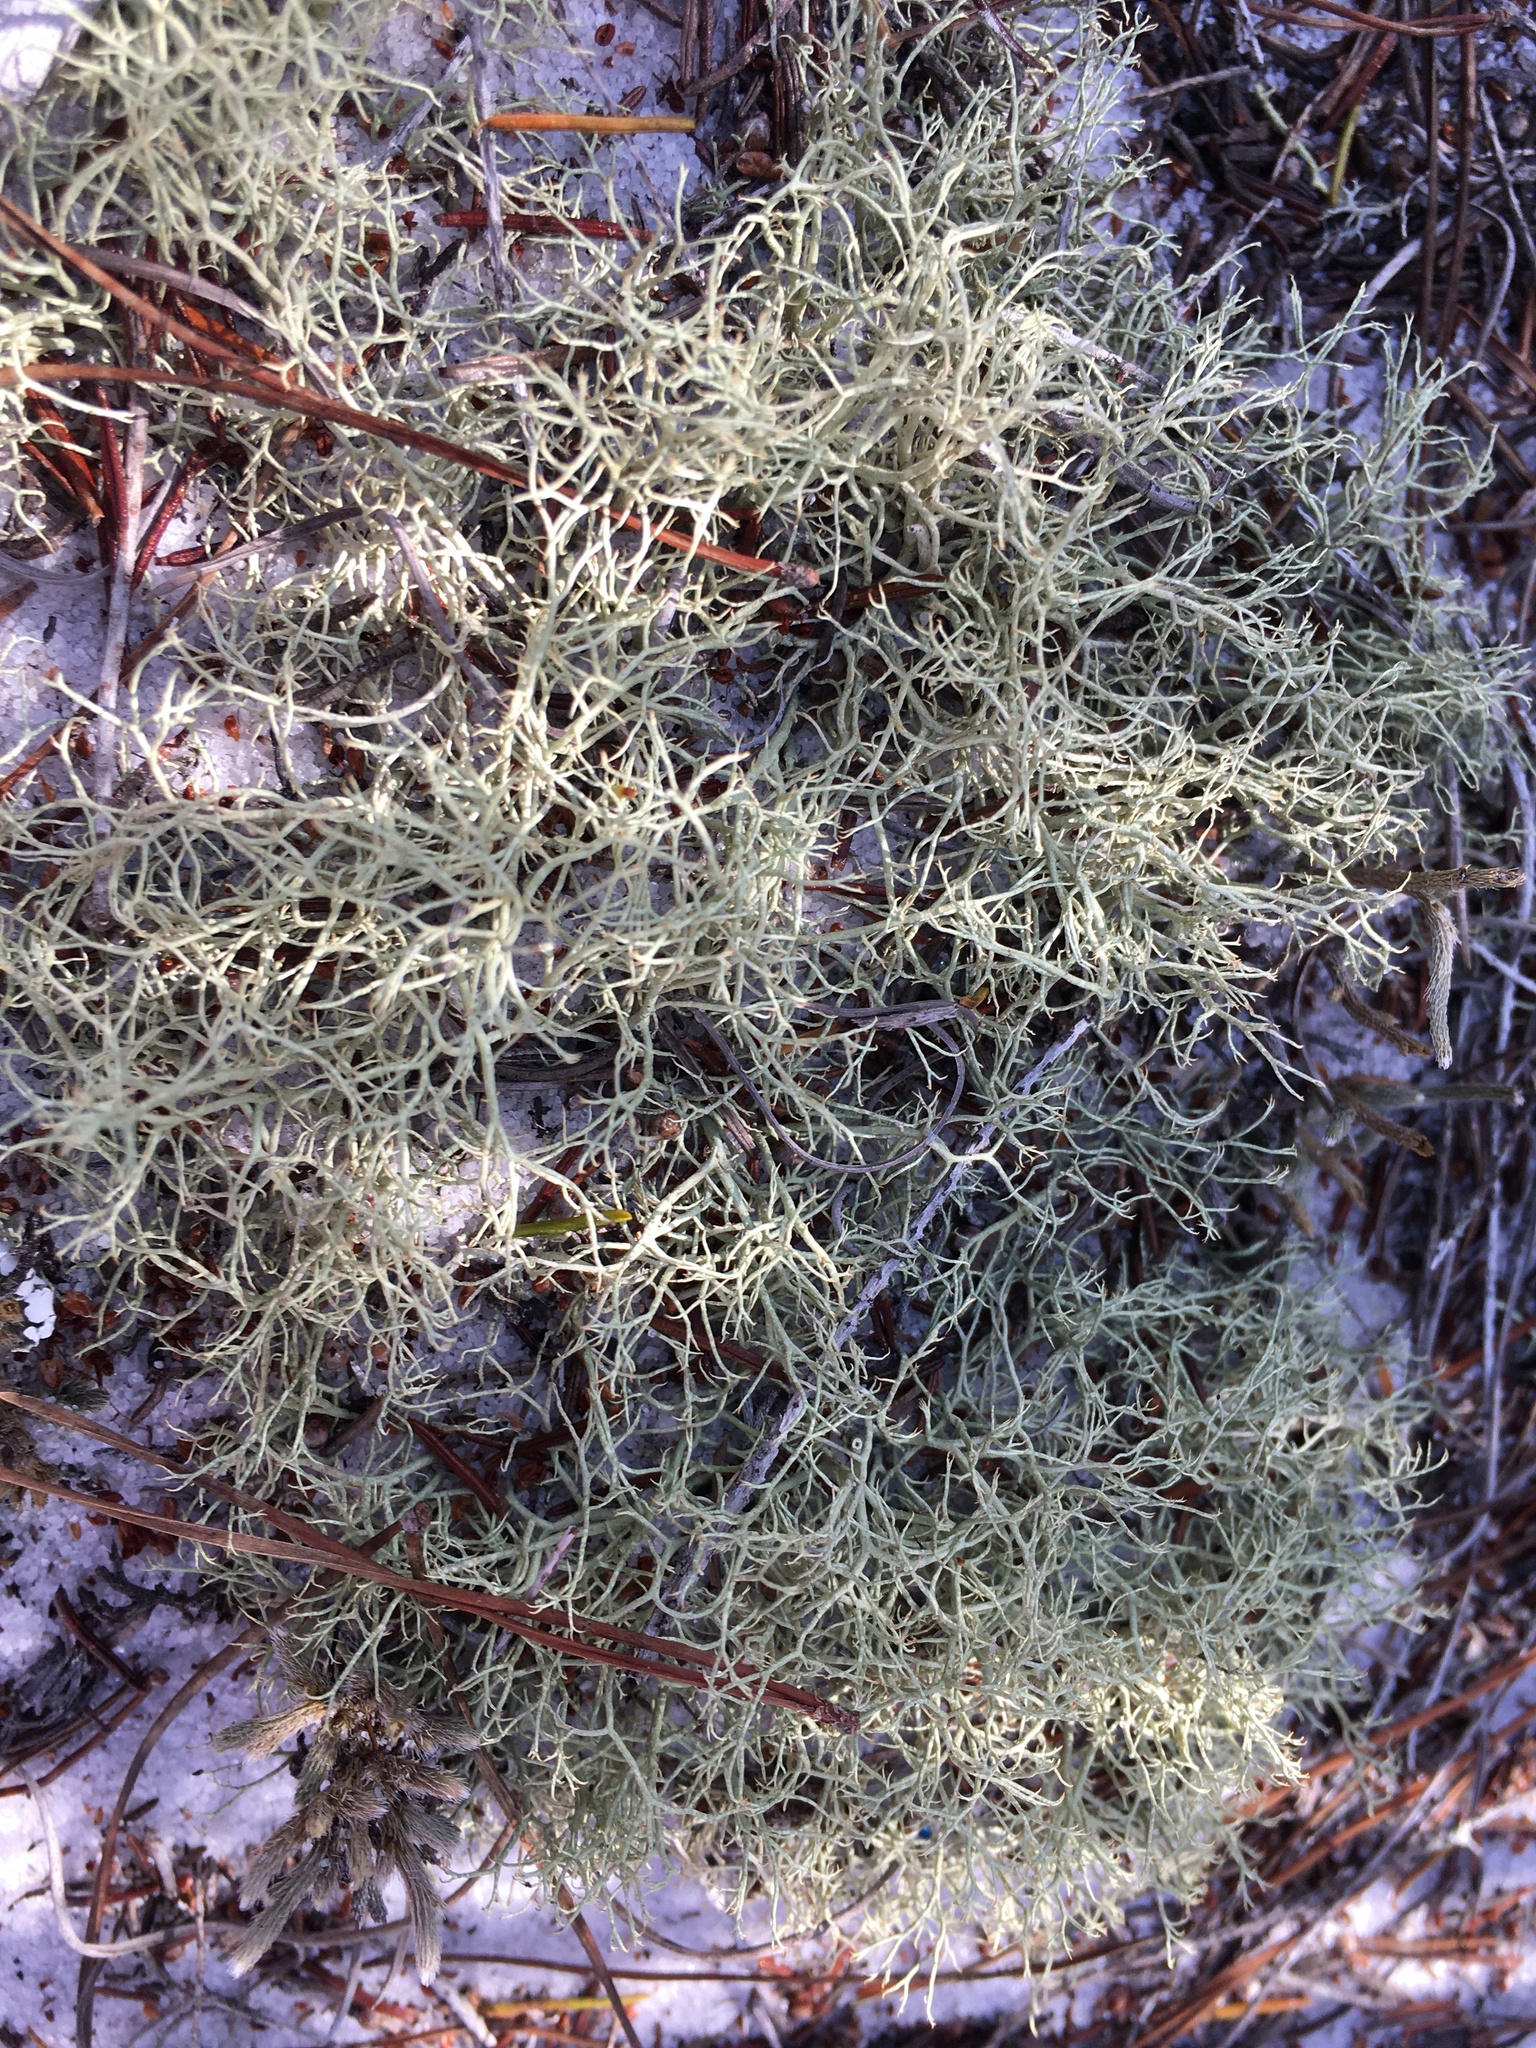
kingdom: Fungi
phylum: Ascomycota
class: Lecanoromycetes
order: Lecanorales
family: Cladoniaceae
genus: Cladonia
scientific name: Cladonia subsetacea
